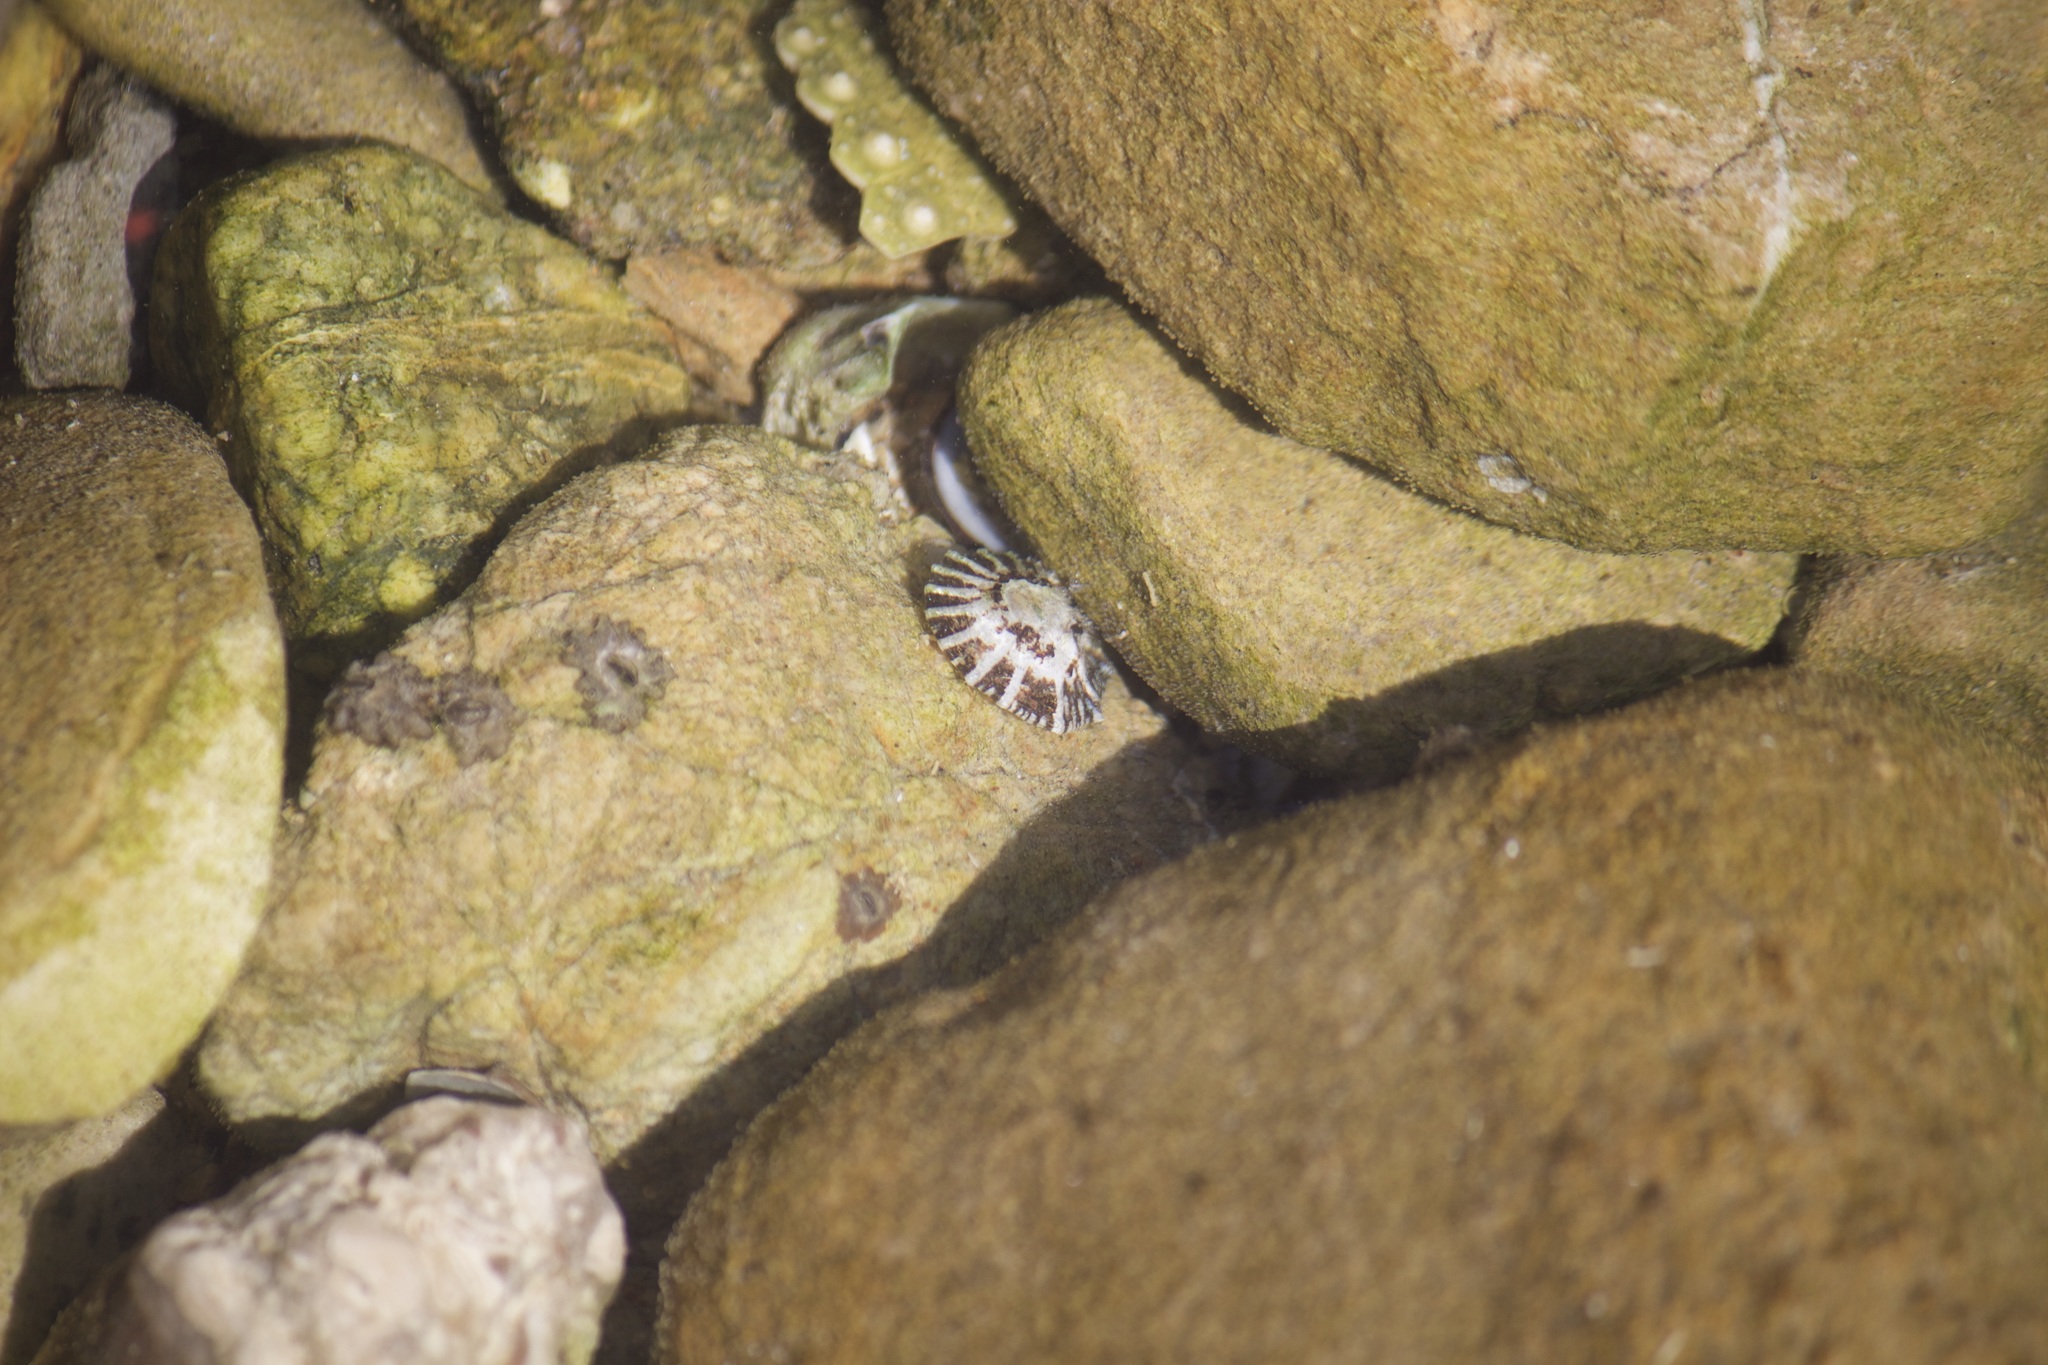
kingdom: Animalia
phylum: Mollusca
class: Gastropoda
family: Lottiidae
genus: Lottia
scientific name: Lottia conus
